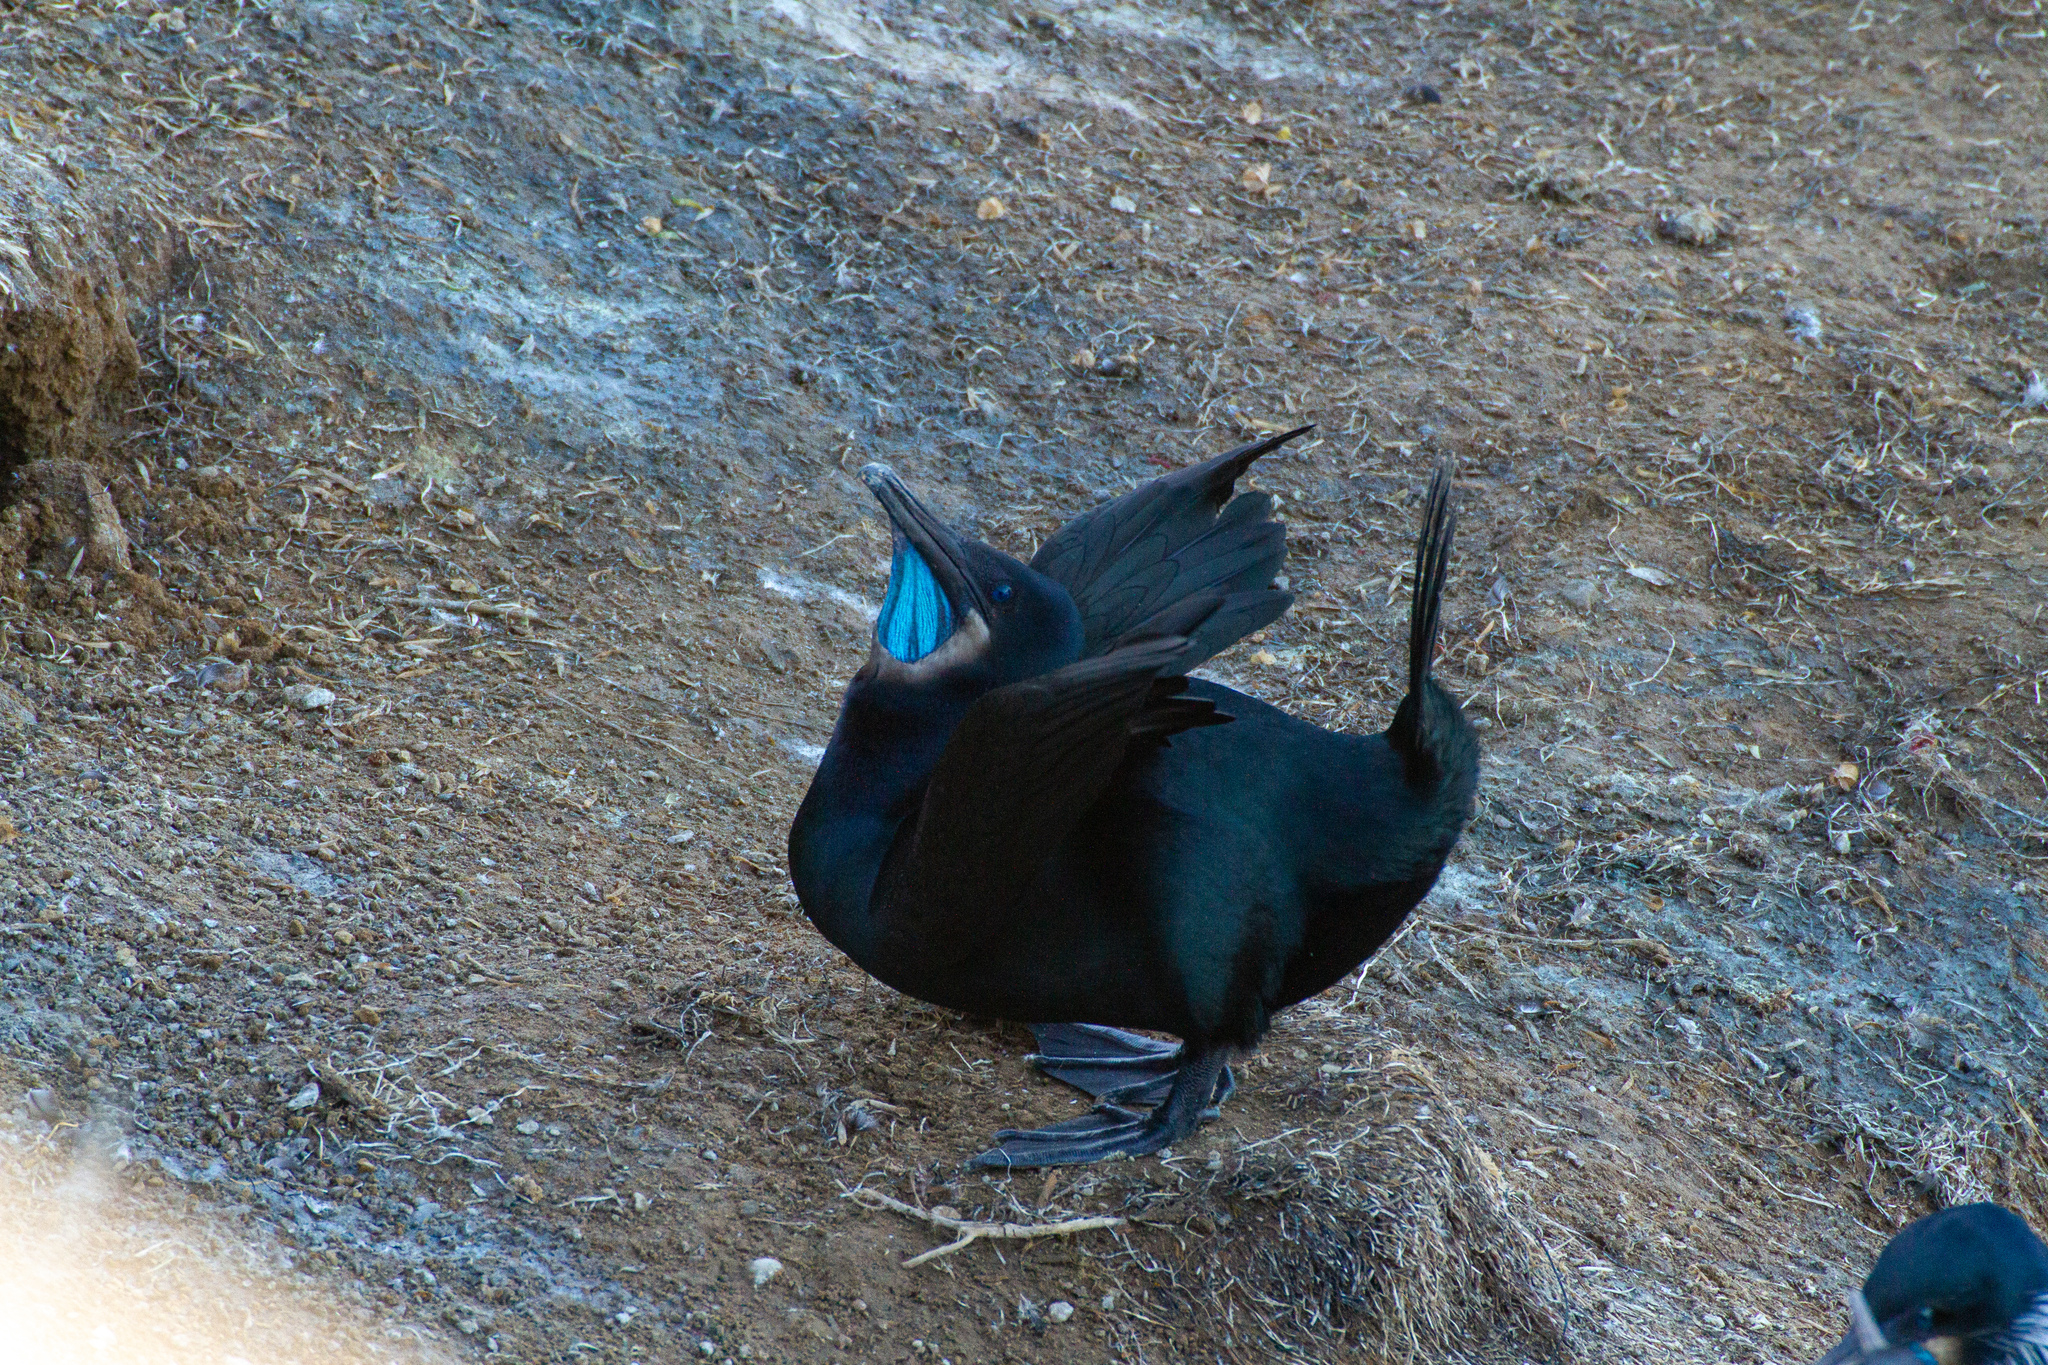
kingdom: Animalia
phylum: Chordata
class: Aves
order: Suliformes
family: Phalacrocoracidae
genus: Urile
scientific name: Urile penicillatus
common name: Brandt's cormorant
